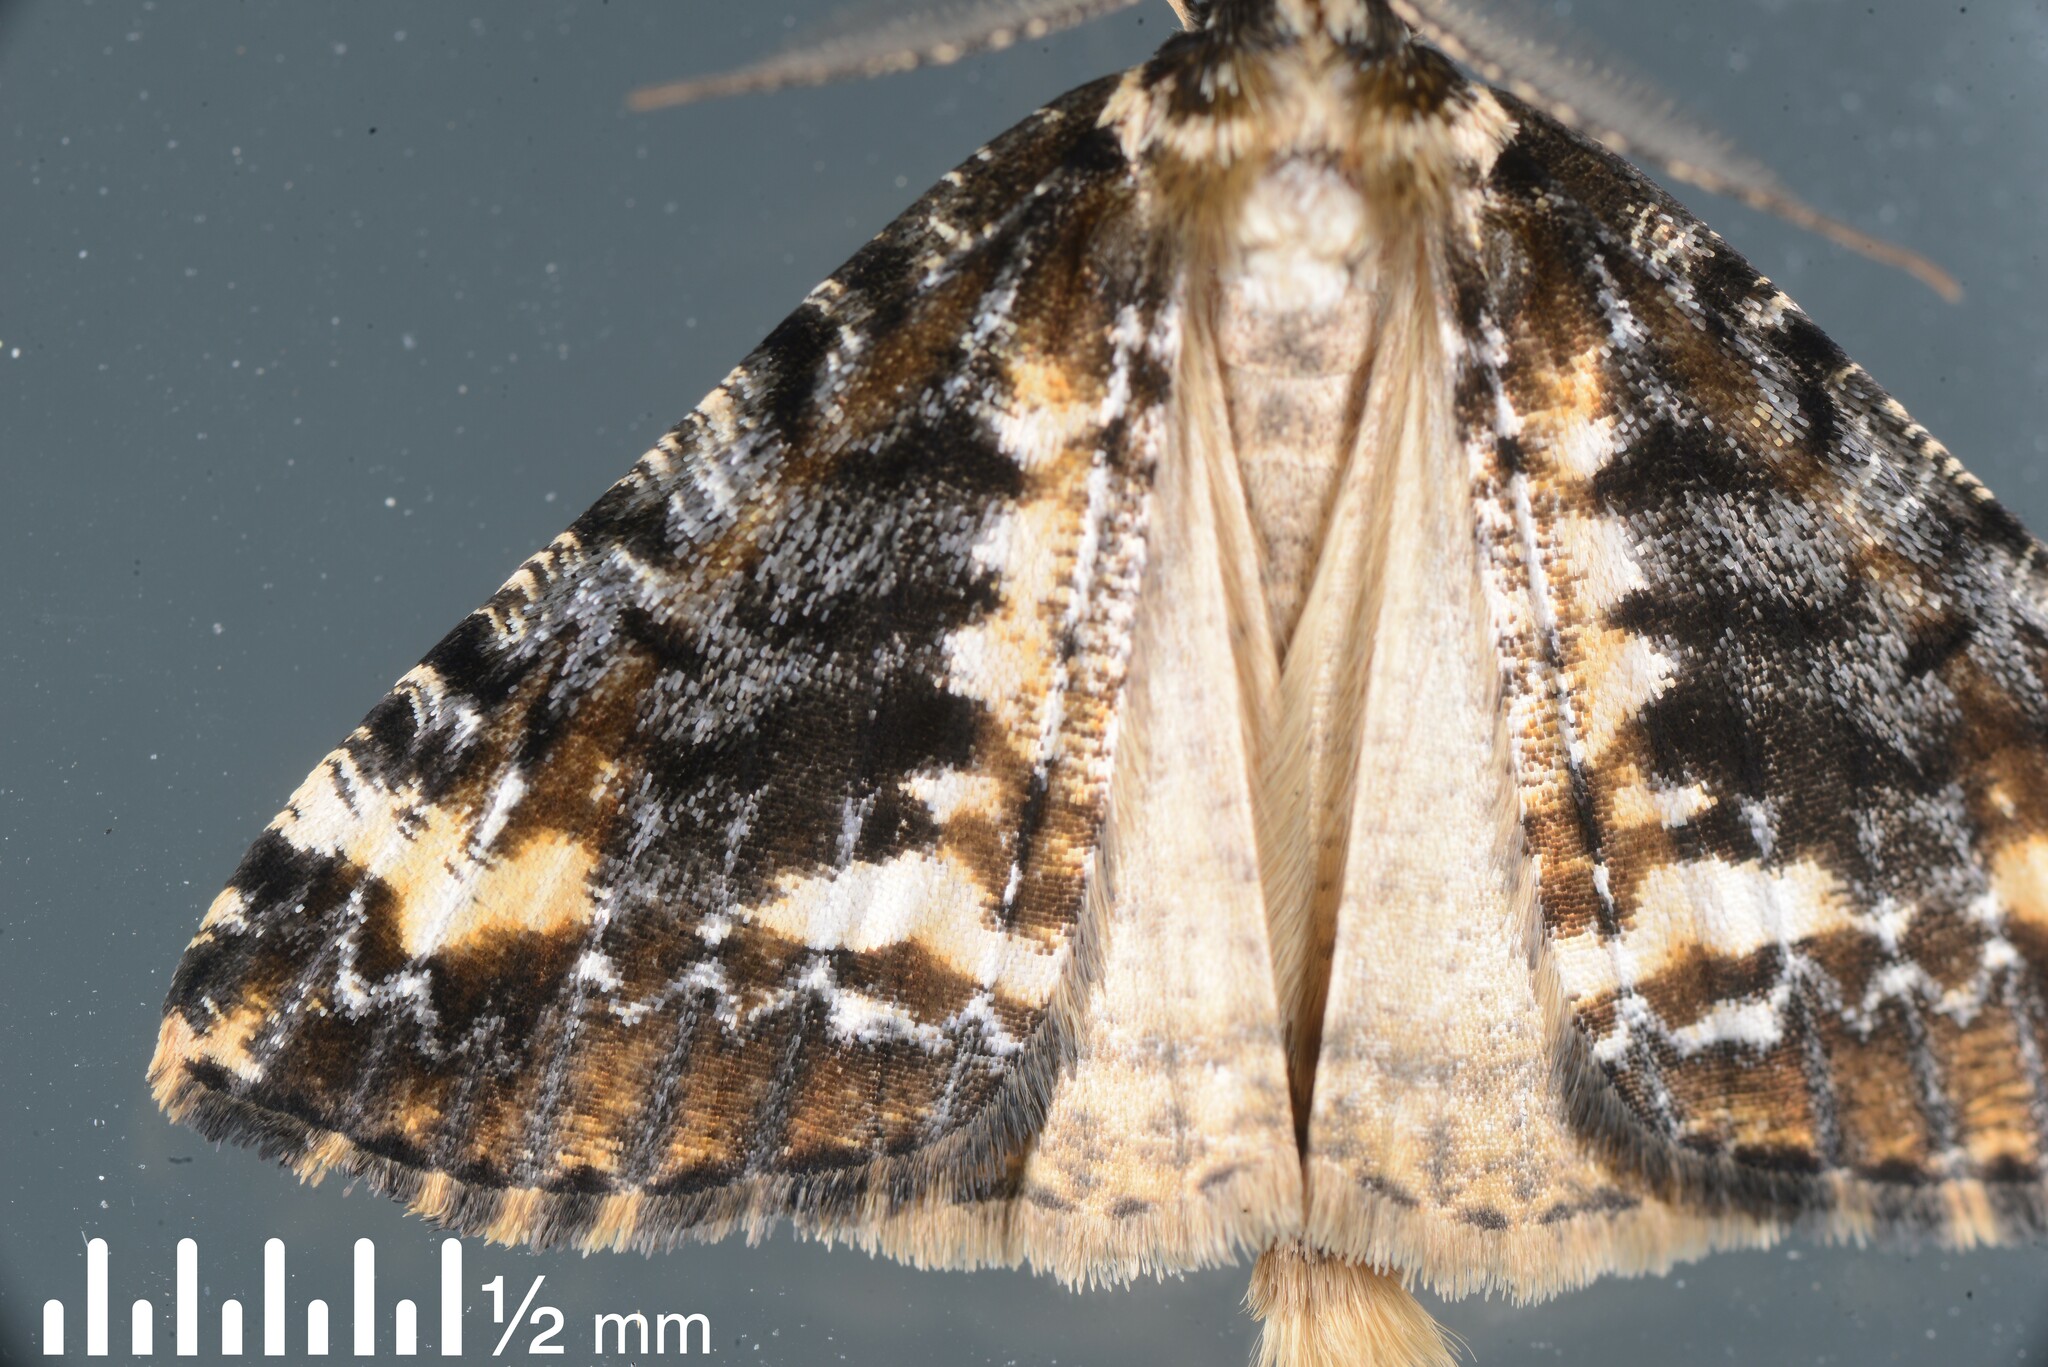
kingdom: Animalia
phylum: Arthropoda
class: Insecta
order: Lepidoptera
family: Geometridae
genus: Pseudocoremia
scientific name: Pseudocoremia leucelaea
